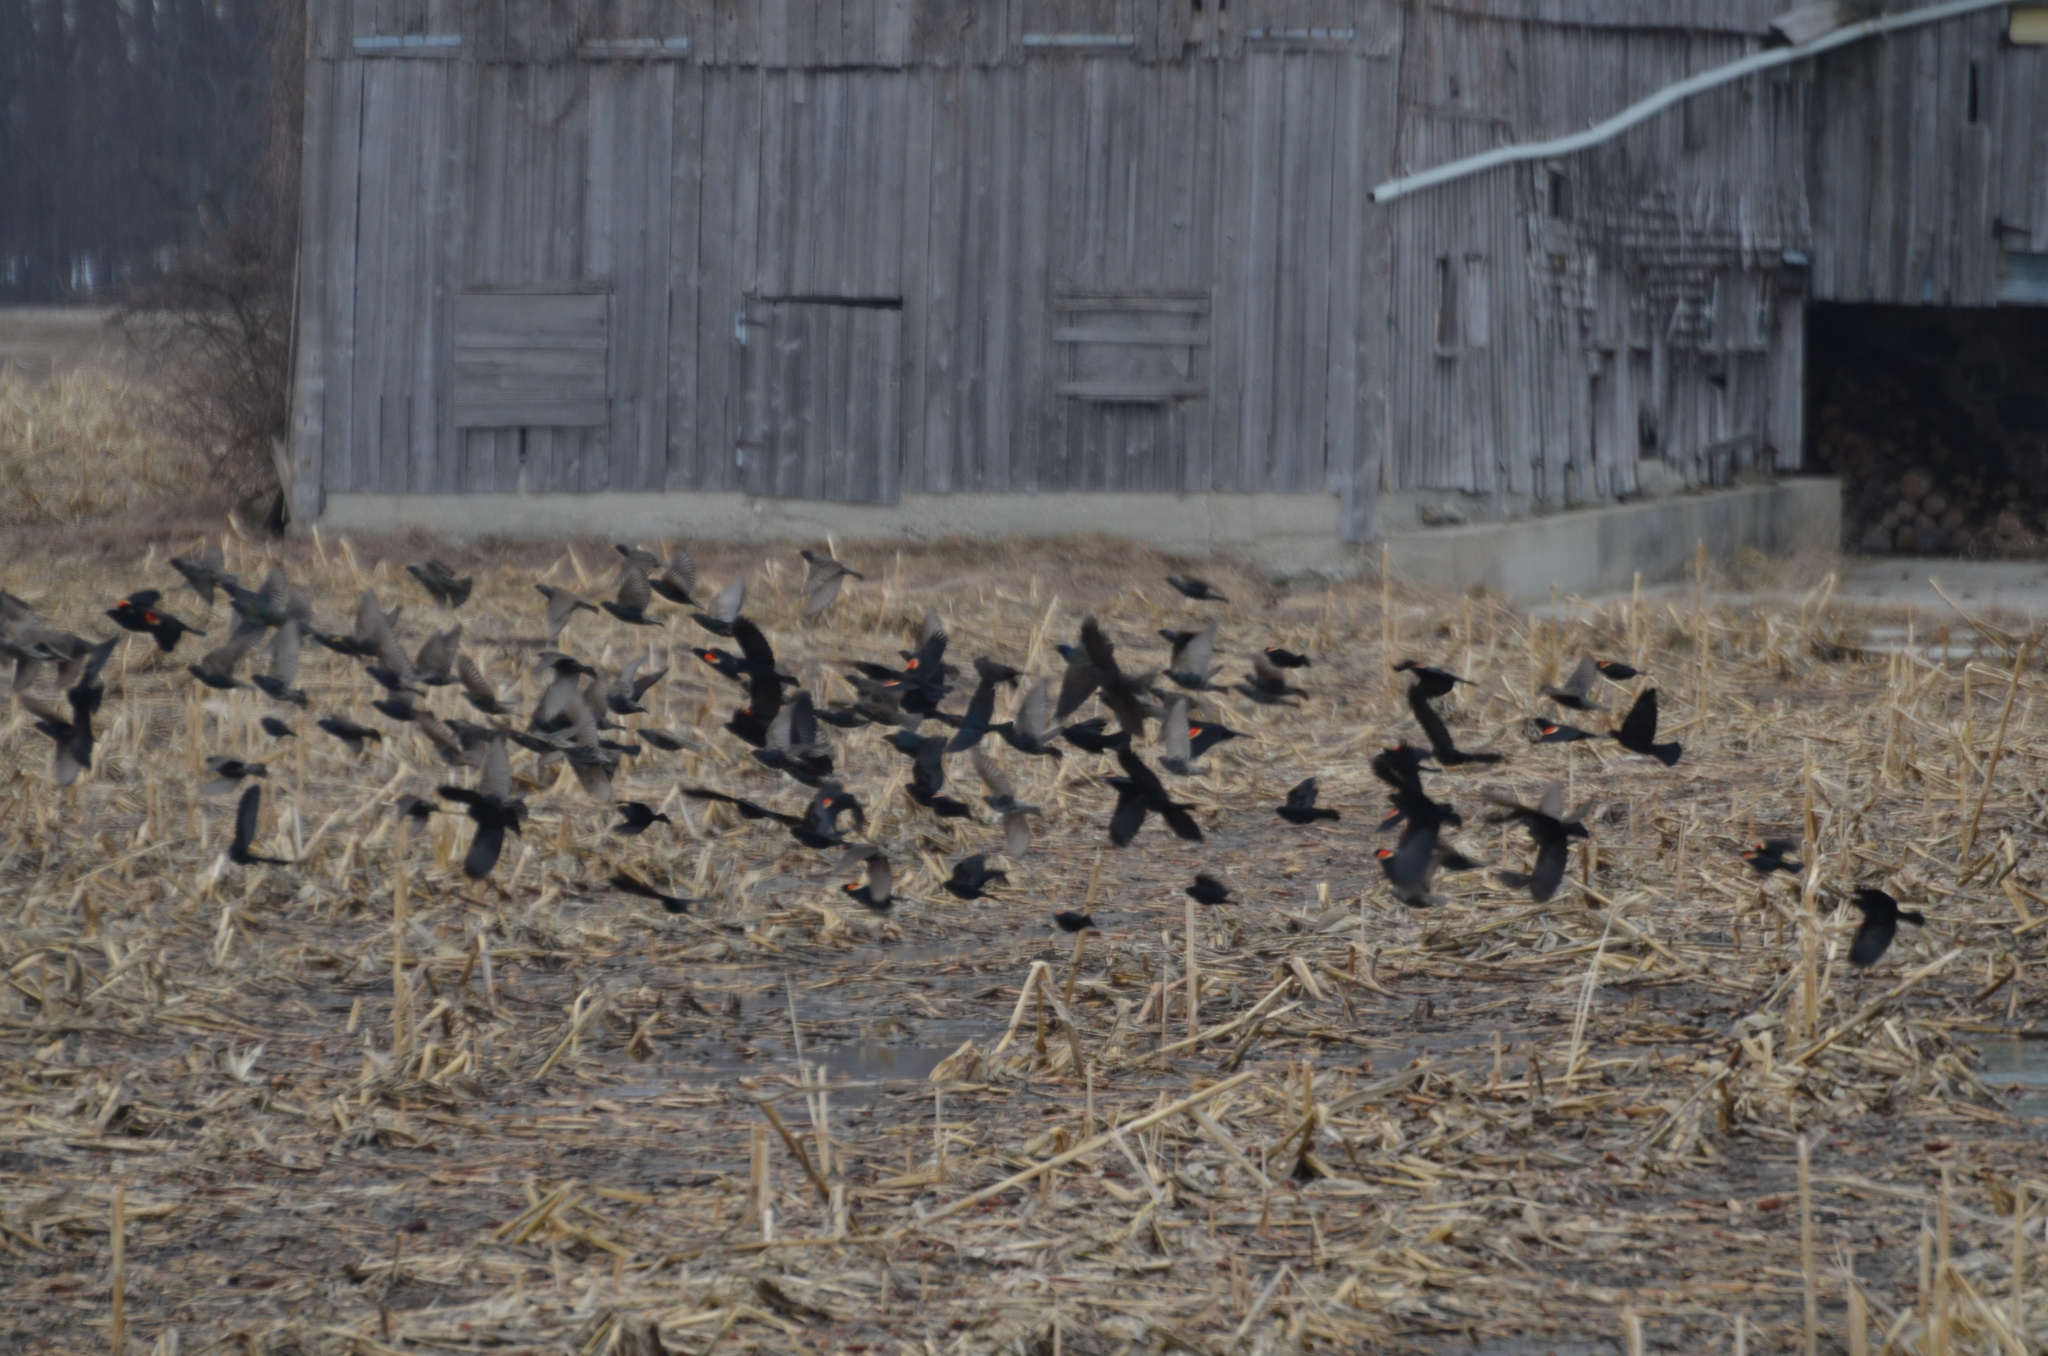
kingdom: Animalia
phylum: Chordata
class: Aves
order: Passeriformes
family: Icteridae
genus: Agelaius
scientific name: Agelaius phoeniceus
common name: Red-winged blackbird
